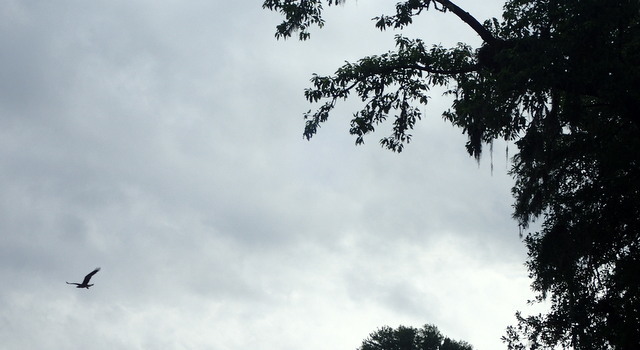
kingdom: Animalia
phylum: Chordata
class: Aves
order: Accipitriformes
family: Pandionidae
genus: Pandion
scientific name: Pandion haliaetus
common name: Osprey
